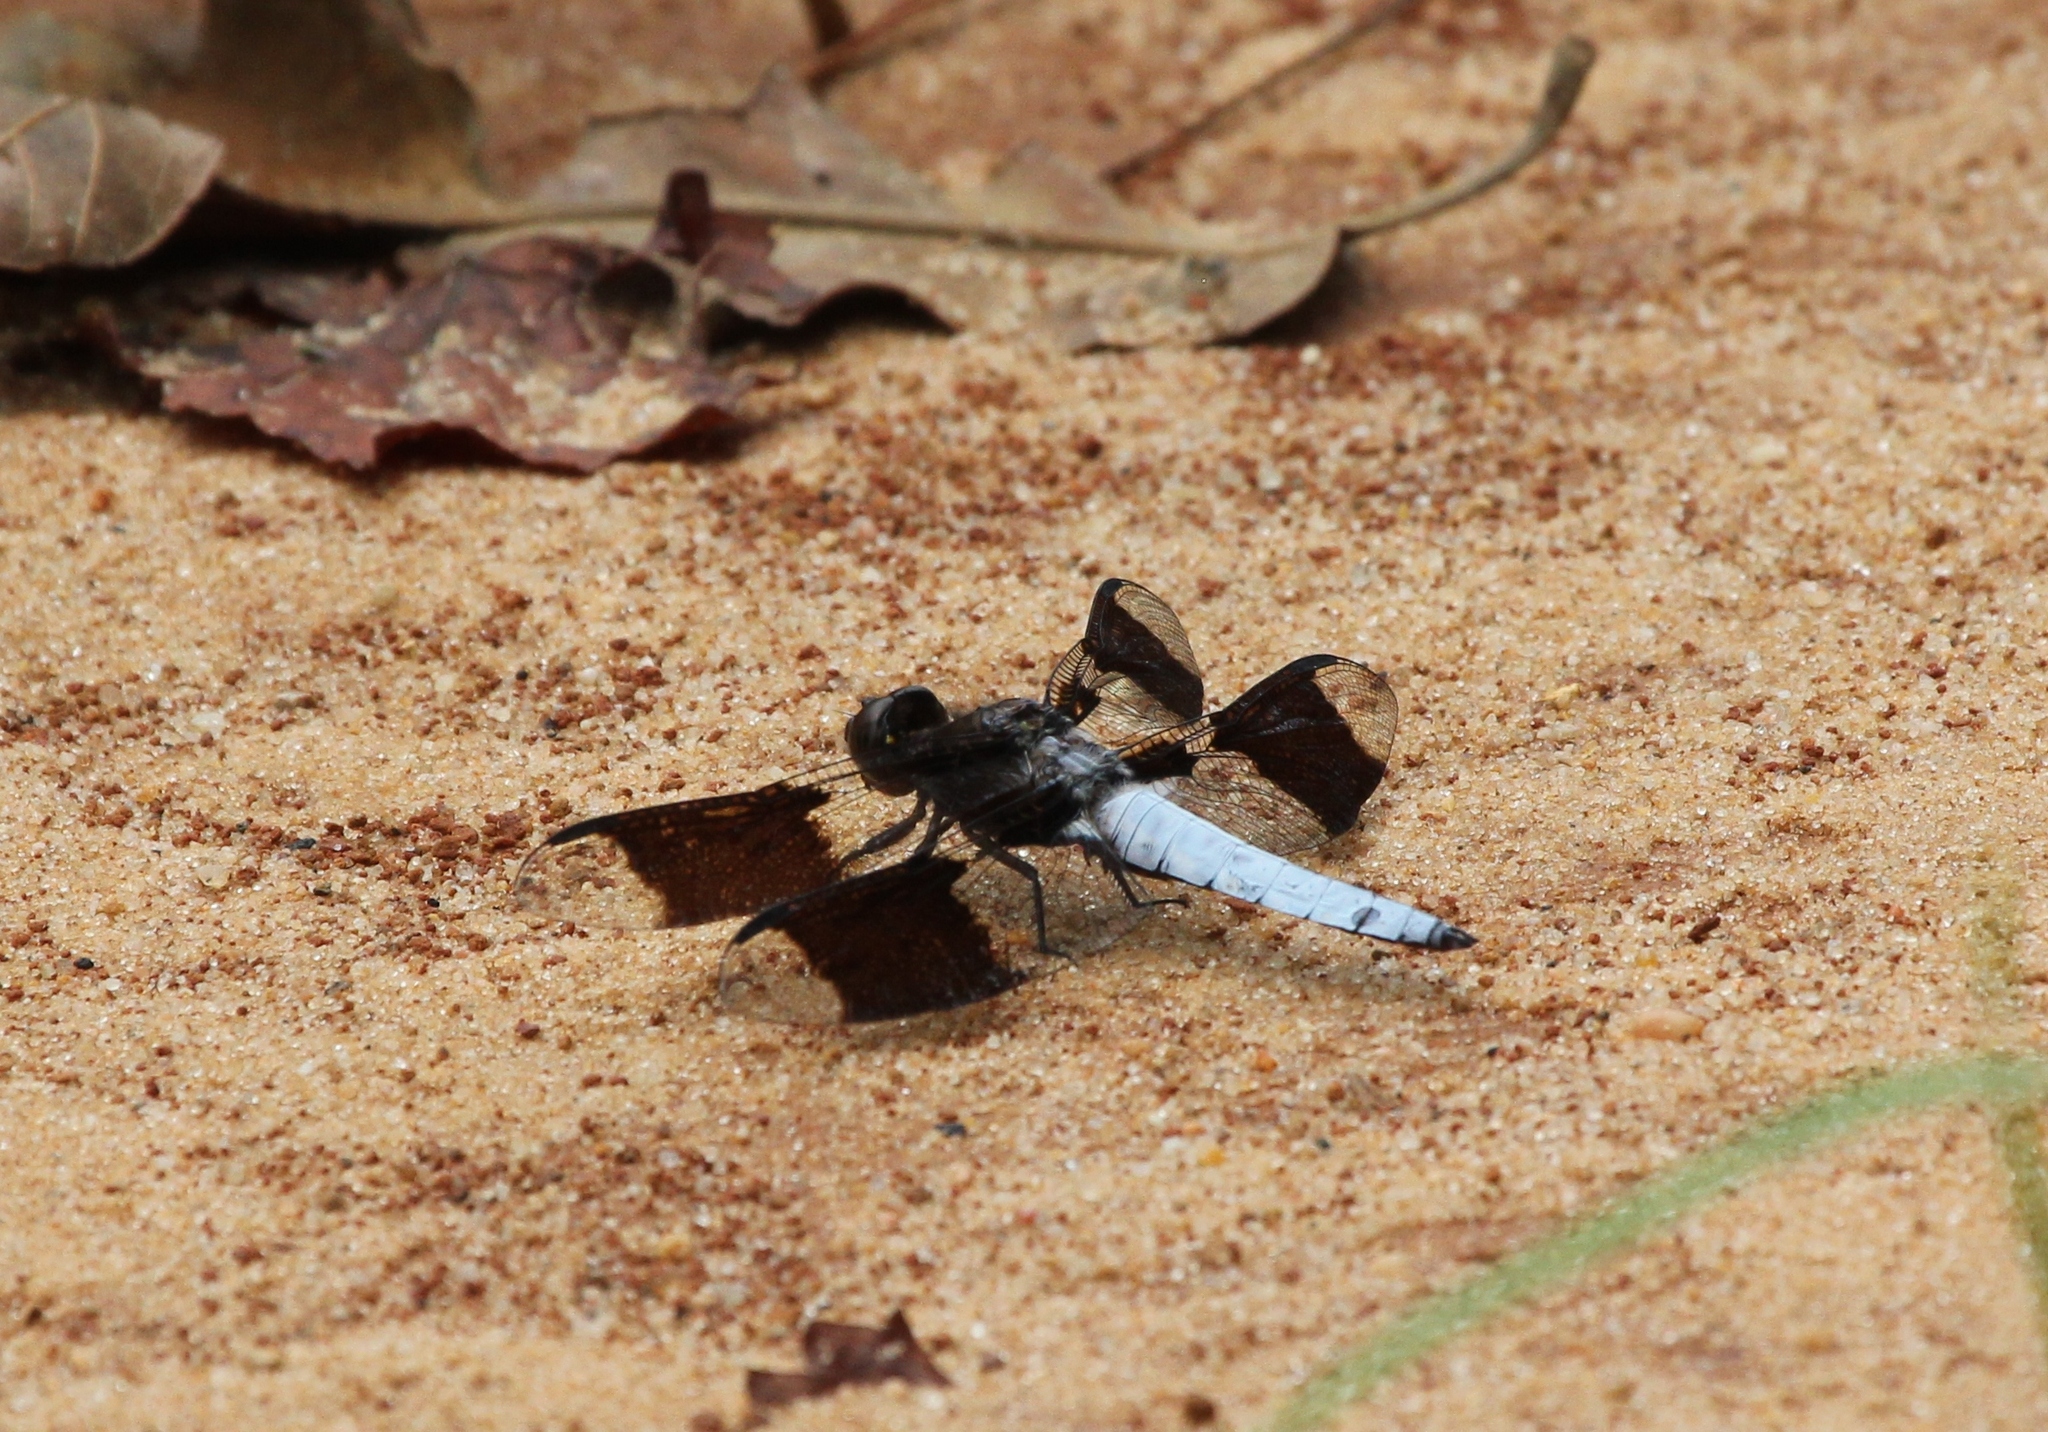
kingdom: Animalia
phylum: Arthropoda
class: Insecta
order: Odonata
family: Libellulidae
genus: Plathemis
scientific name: Plathemis lydia
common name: Common whitetail
